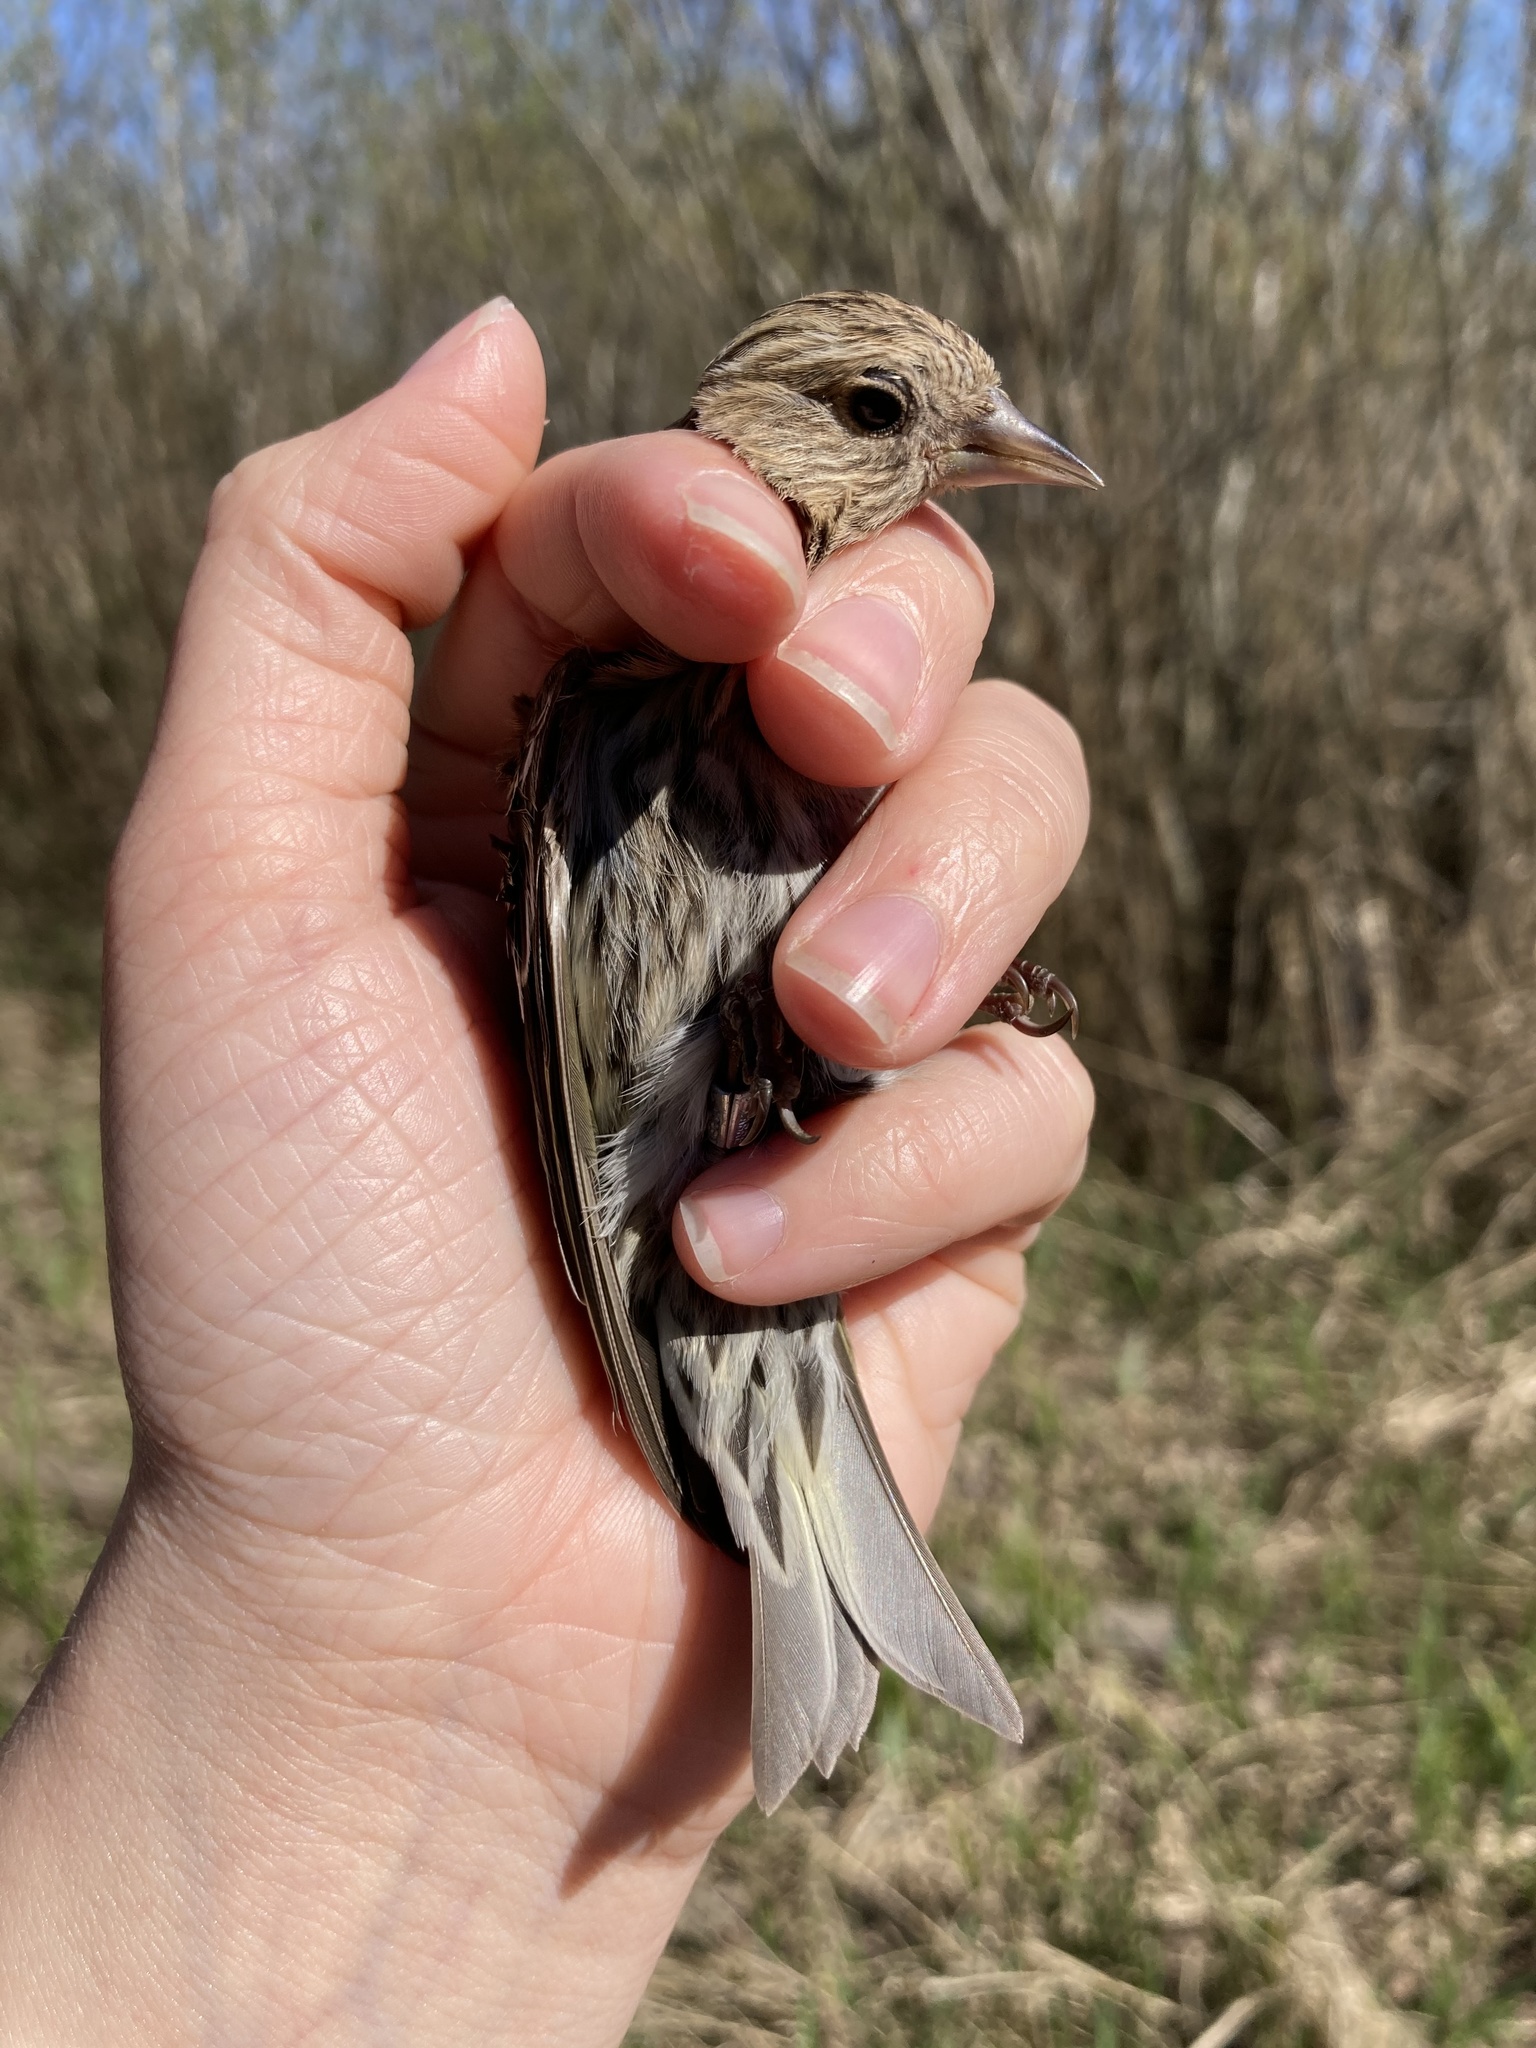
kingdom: Animalia
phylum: Chordata
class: Aves
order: Passeriformes
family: Fringillidae
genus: Spinus
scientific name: Spinus pinus
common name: Pine siskin
